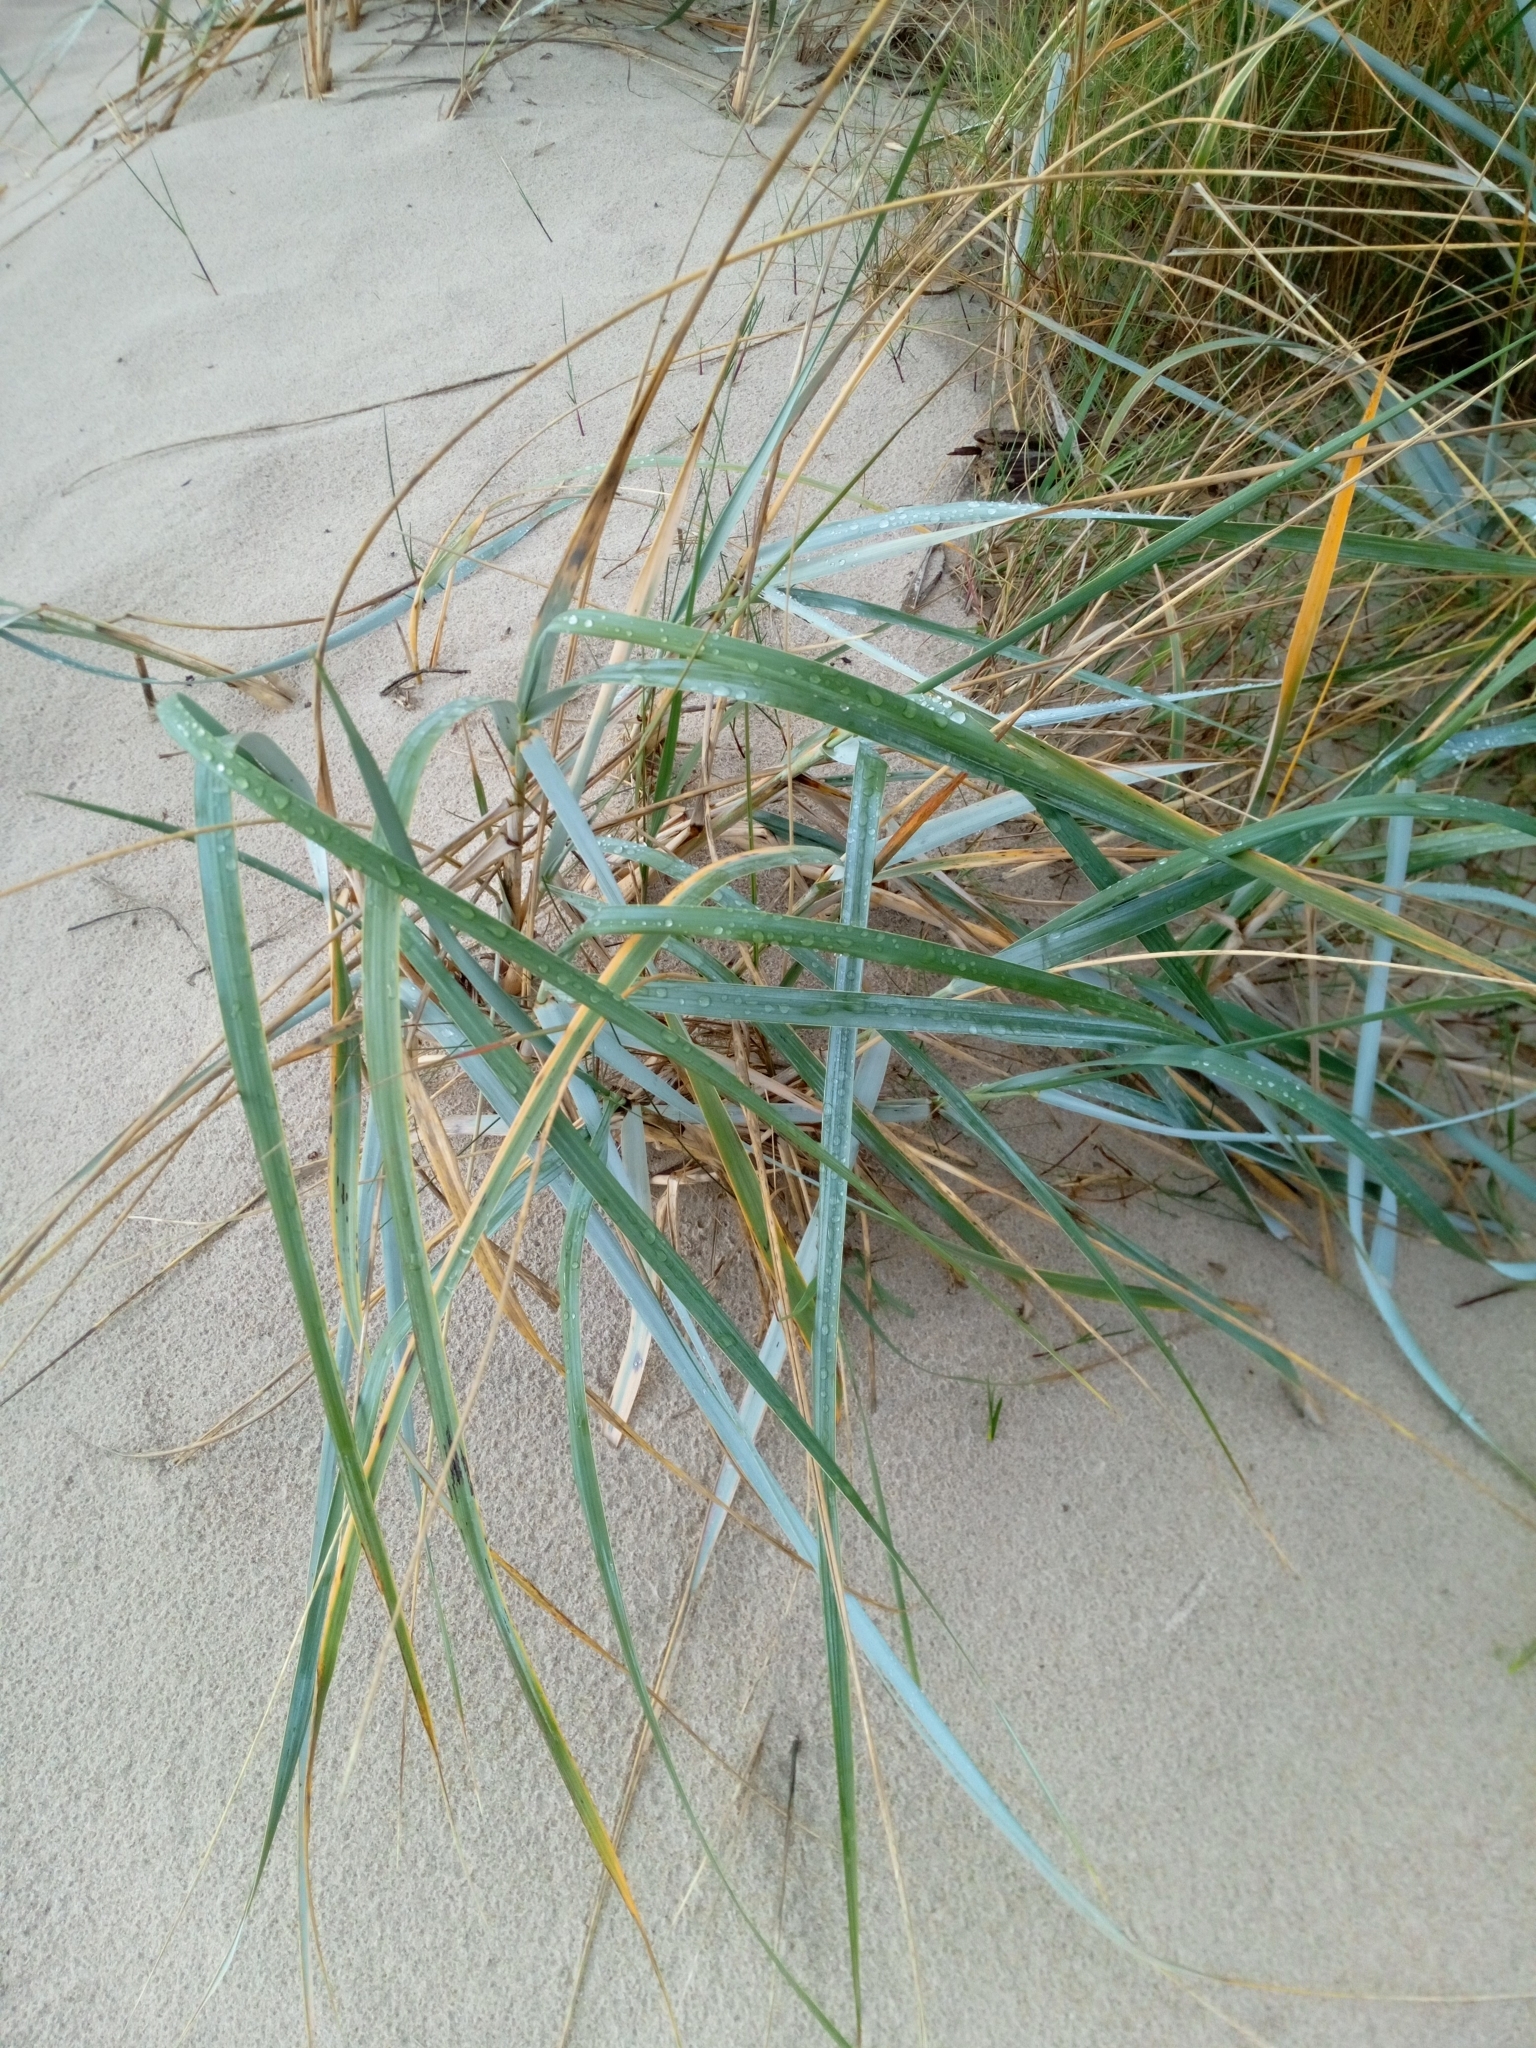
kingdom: Plantae
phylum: Tracheophyta
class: Liliopsida
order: Poales
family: Poaceae
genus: Leymus
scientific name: Leymus arenarius
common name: Lyme-grass
